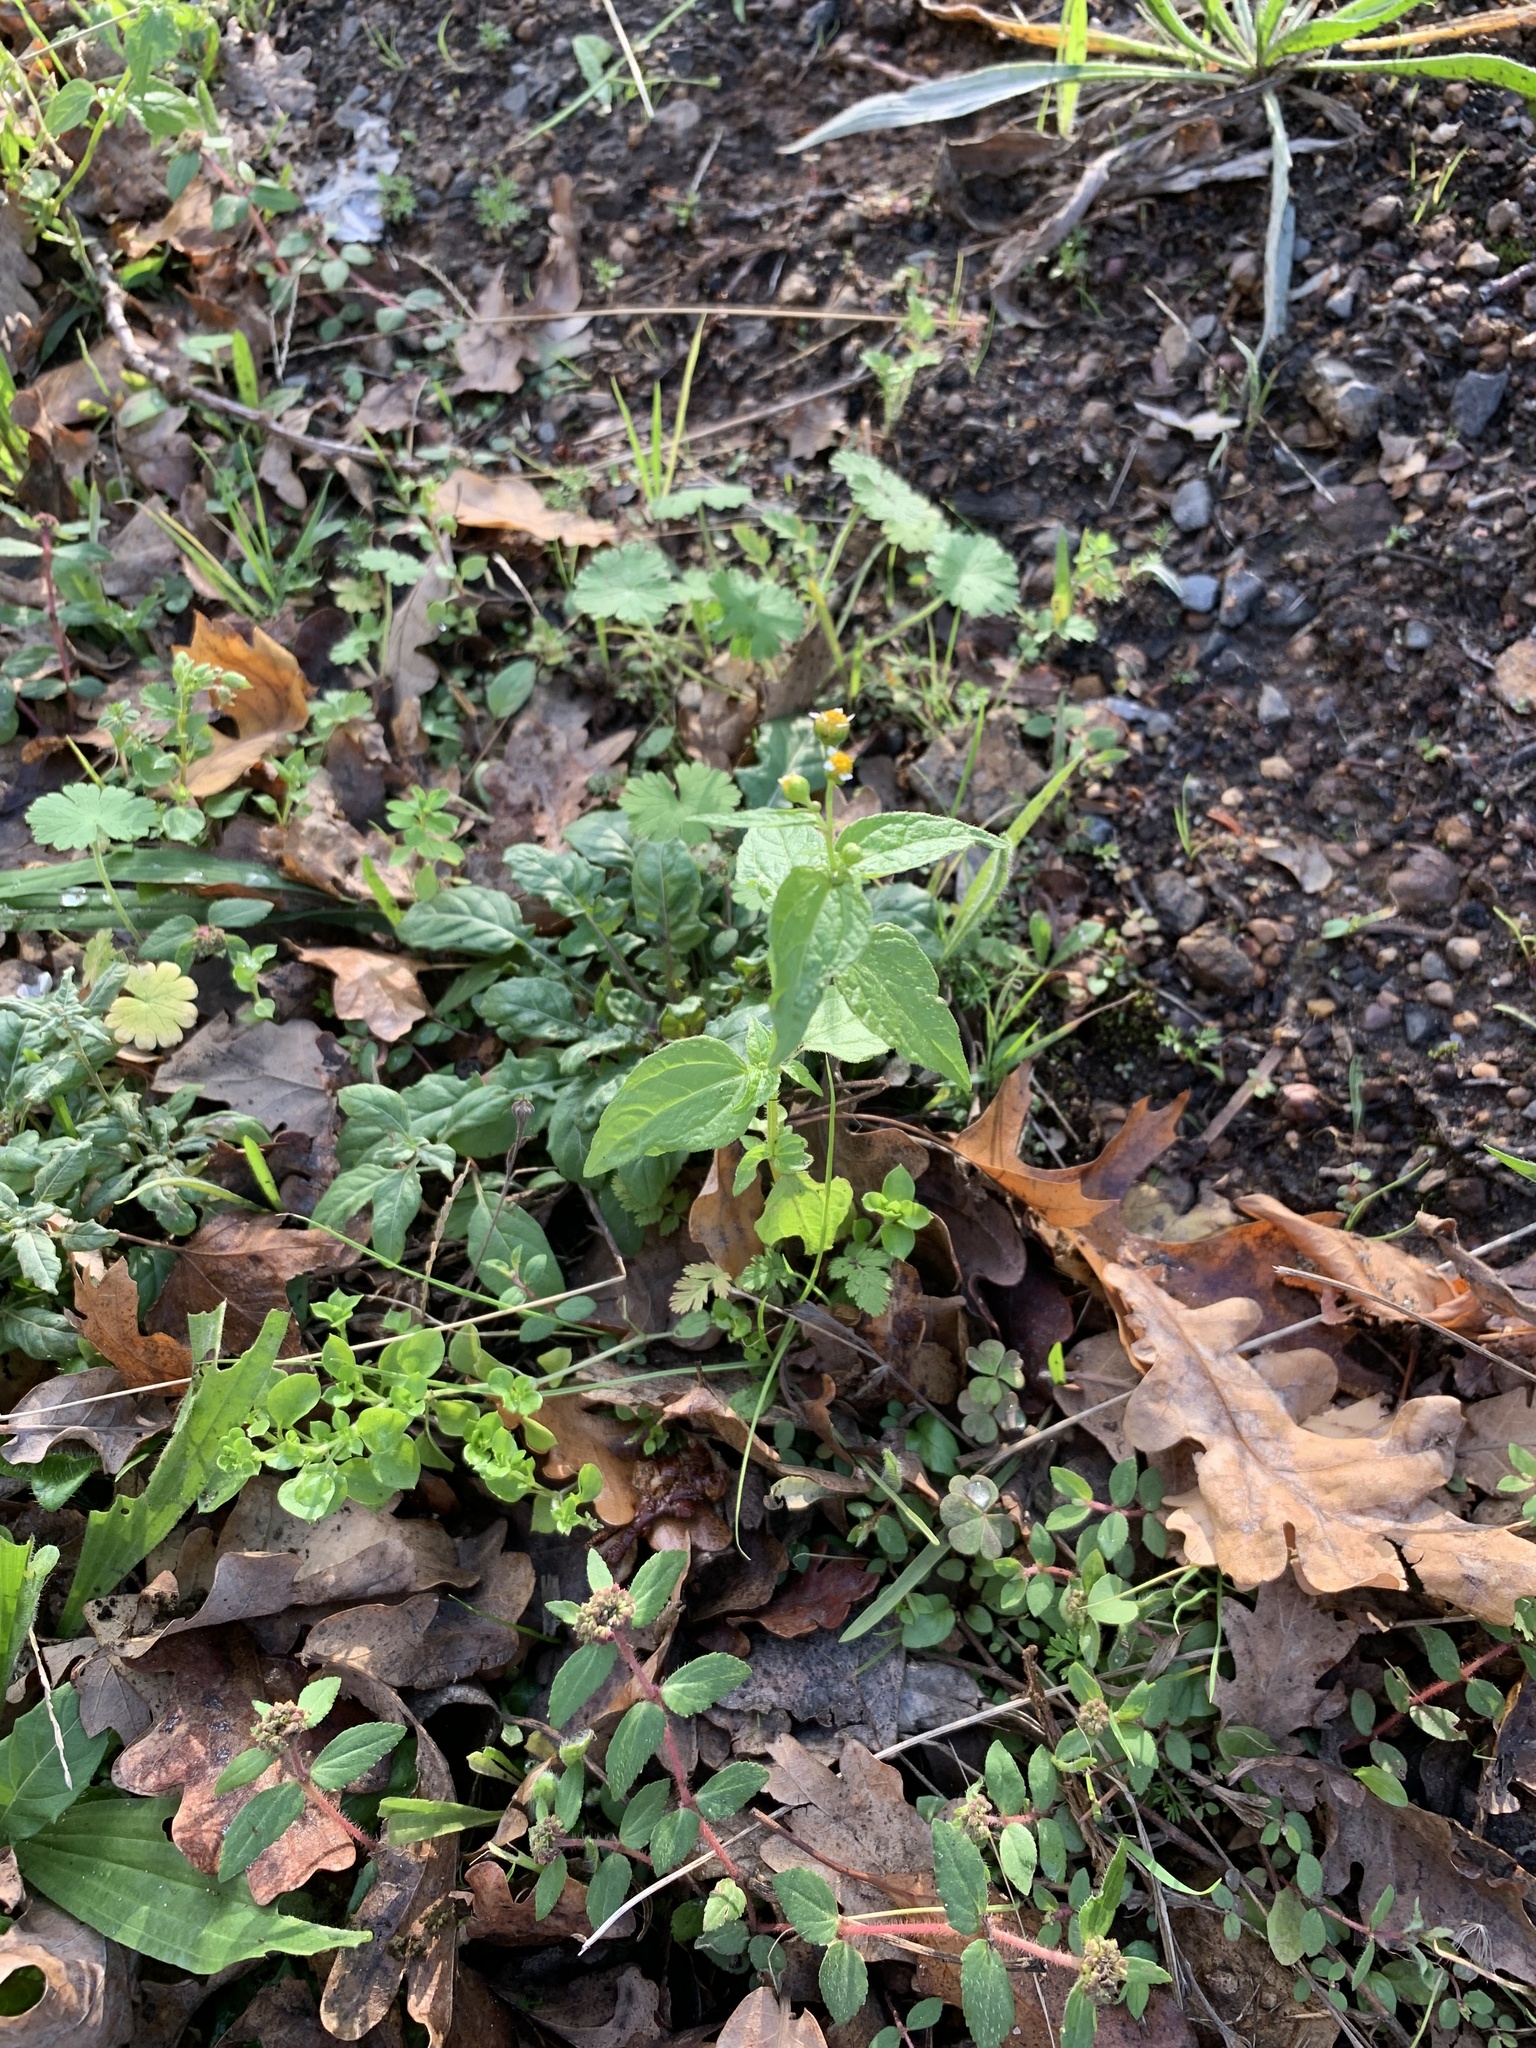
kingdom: Plantae
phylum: Tracheophyta
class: Magnoliopsida
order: Asterales
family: Asteraceae
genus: Galinsoga
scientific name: Galinsoga parviflora
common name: Gallant soldier
